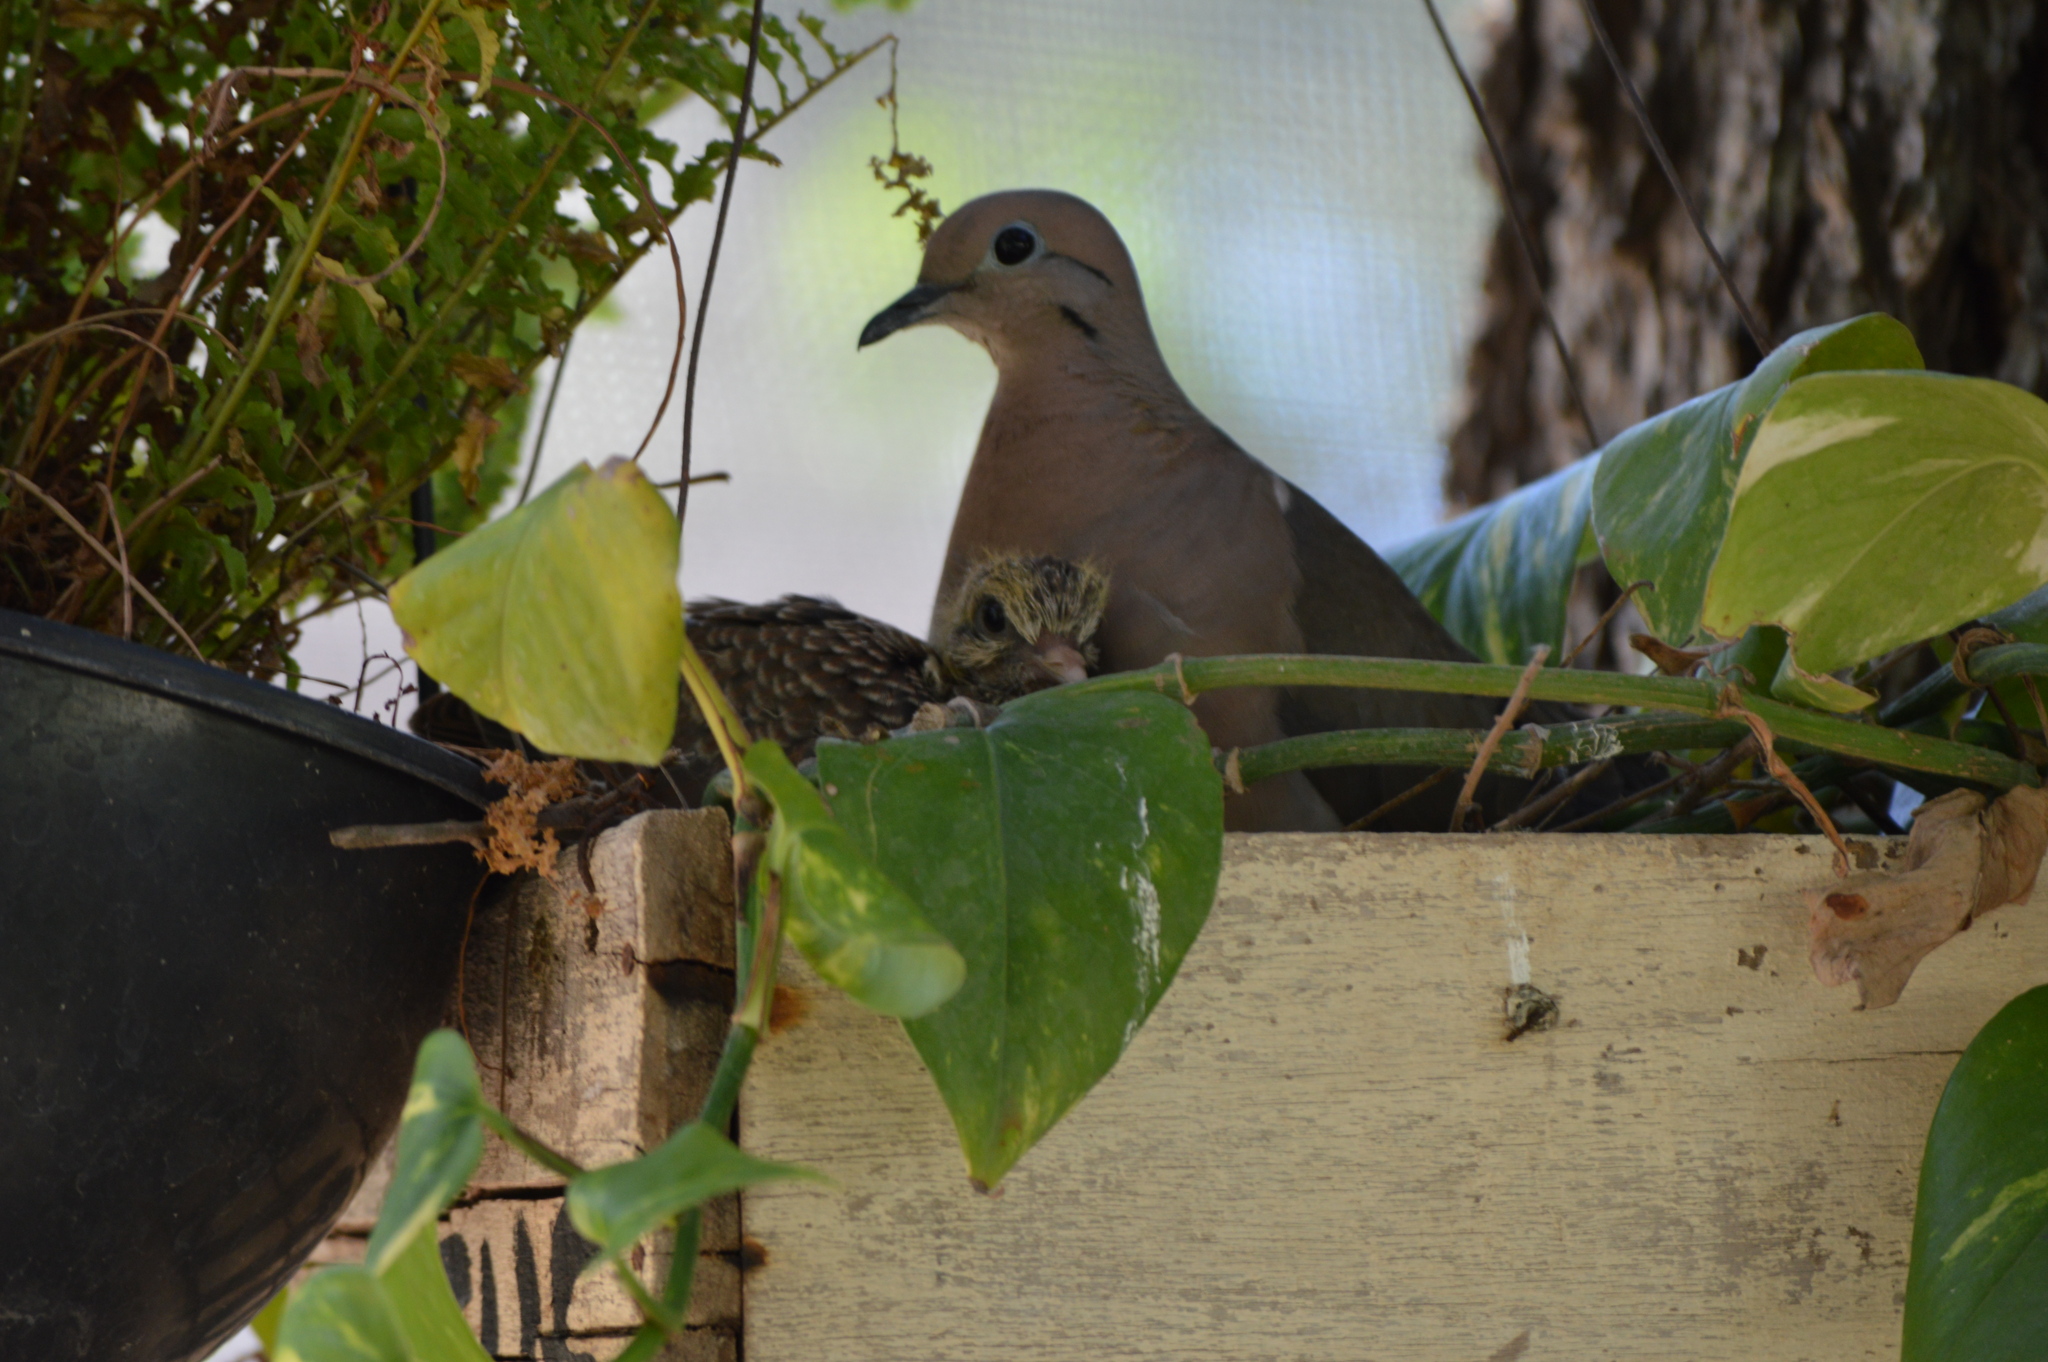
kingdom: Animalia
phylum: Chordata
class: Aves
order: Columbiformes
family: Columbidae
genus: Zenaida
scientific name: Zenaida auriculata
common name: Eared dove
